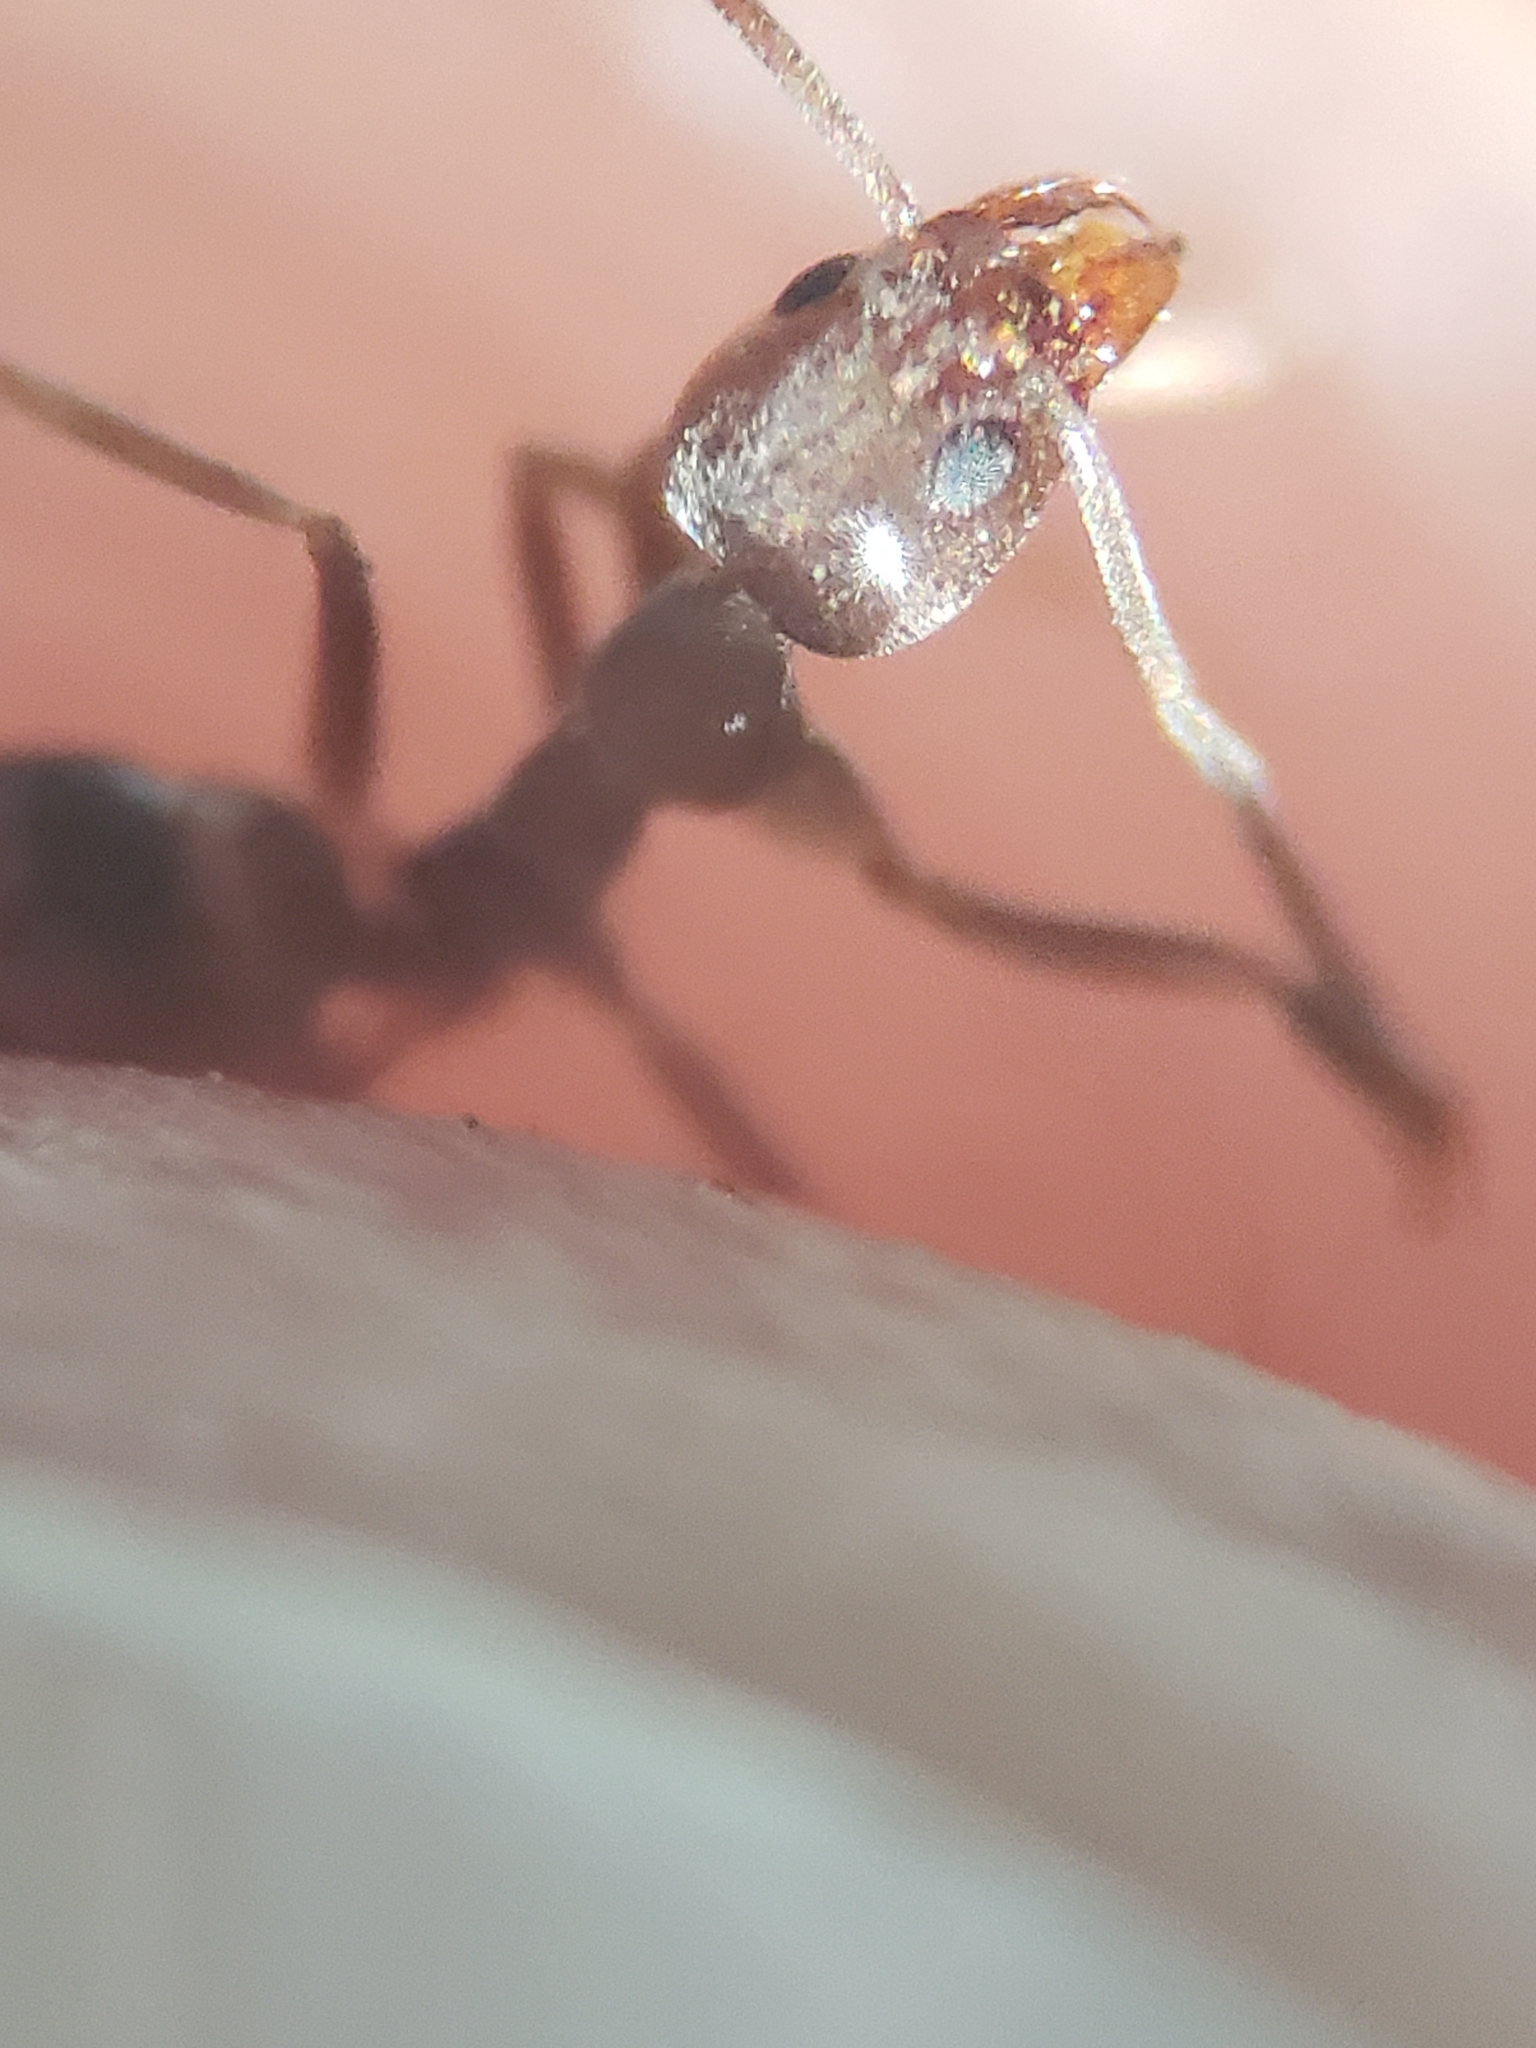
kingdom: Animalia
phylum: Arthropoda
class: Insecta
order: Hymenoptera
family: Formicidae
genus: Linepithema
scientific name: Linepithema humile
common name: Argentine ant
